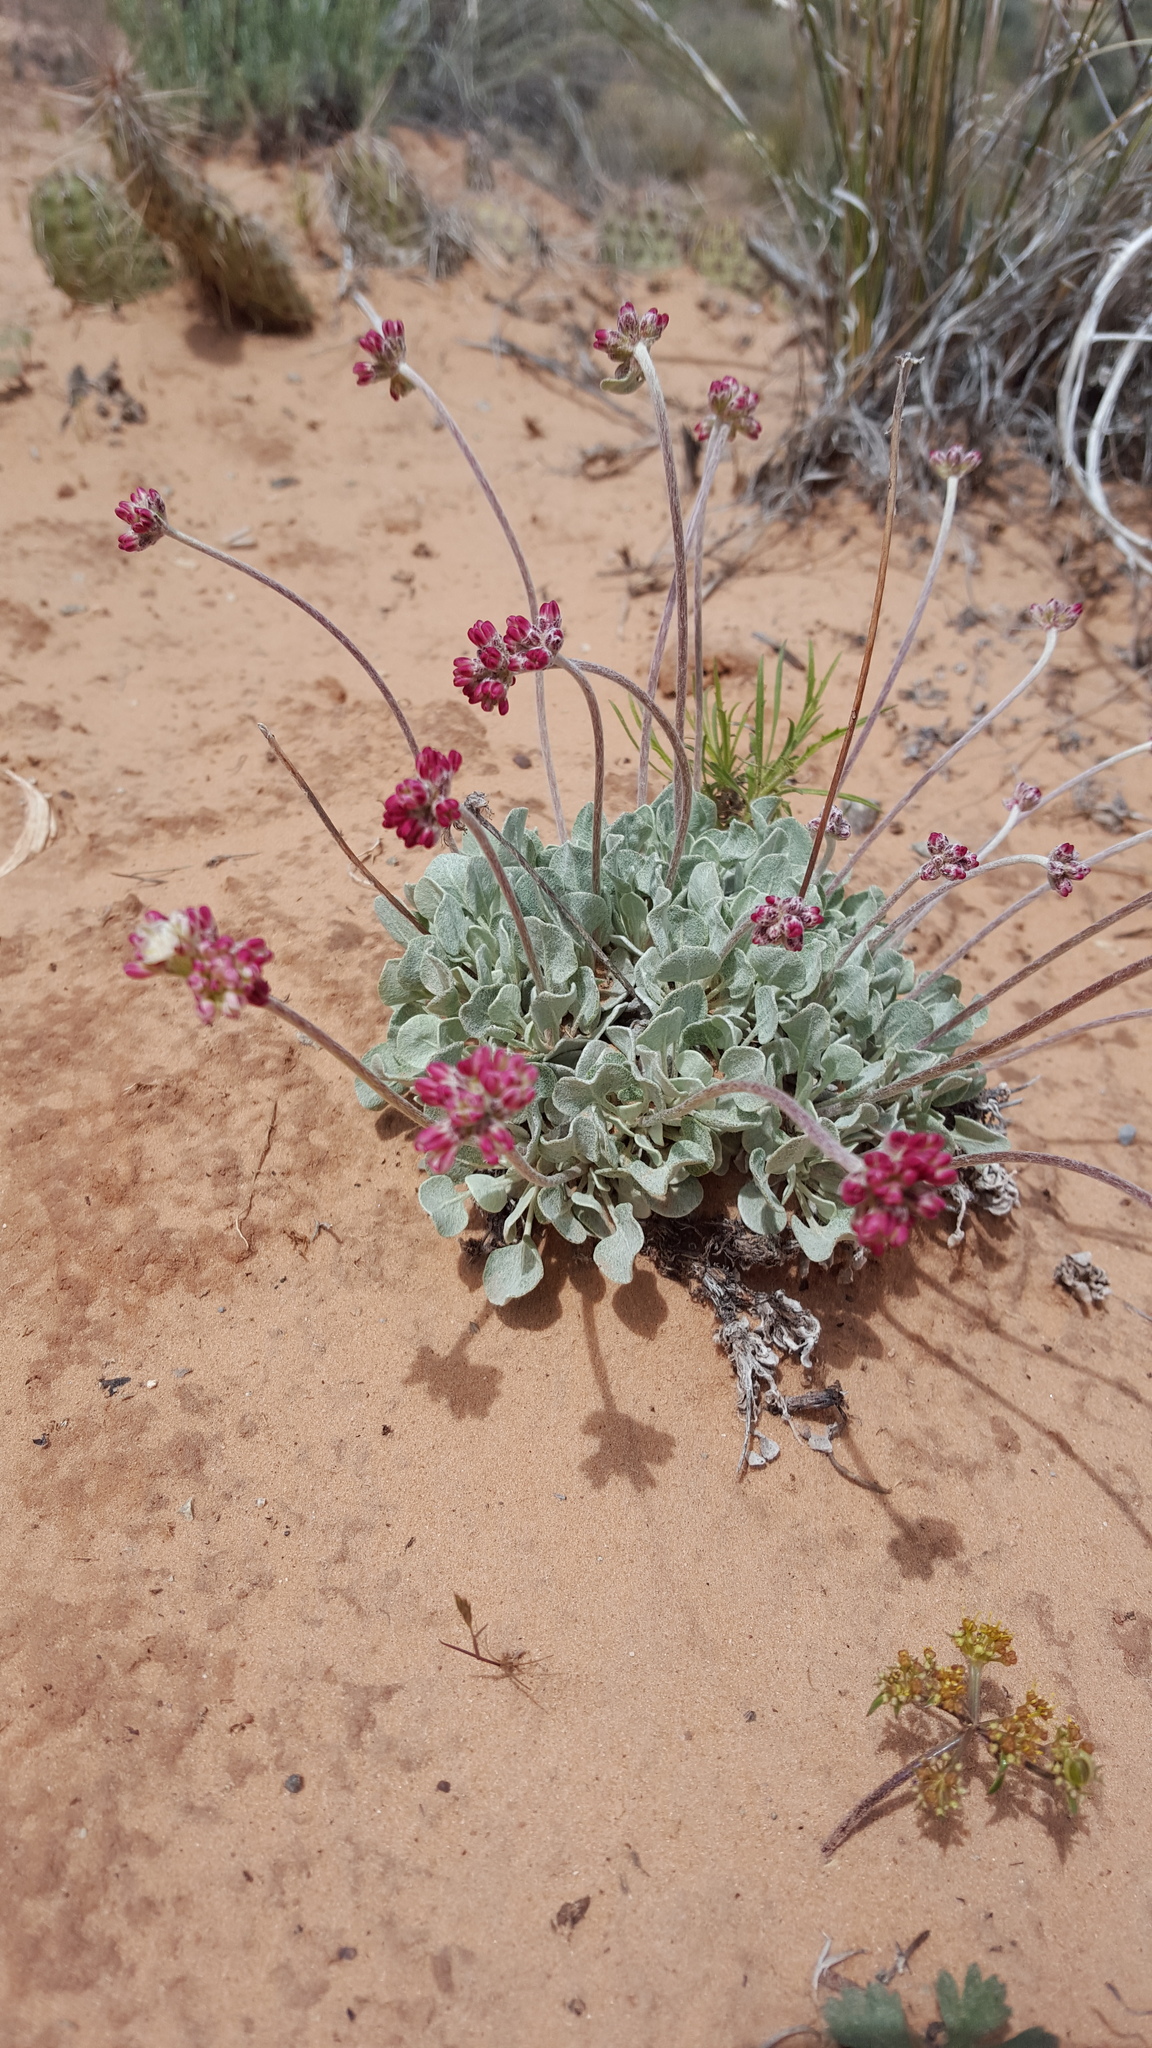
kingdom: Plantae
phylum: Tracheophyta
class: Magnoliopsida
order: Caryophyllales
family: Polygonaceae
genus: Eriogonum
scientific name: Eriogonum ovalifolium
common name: Cushion buckwheat
